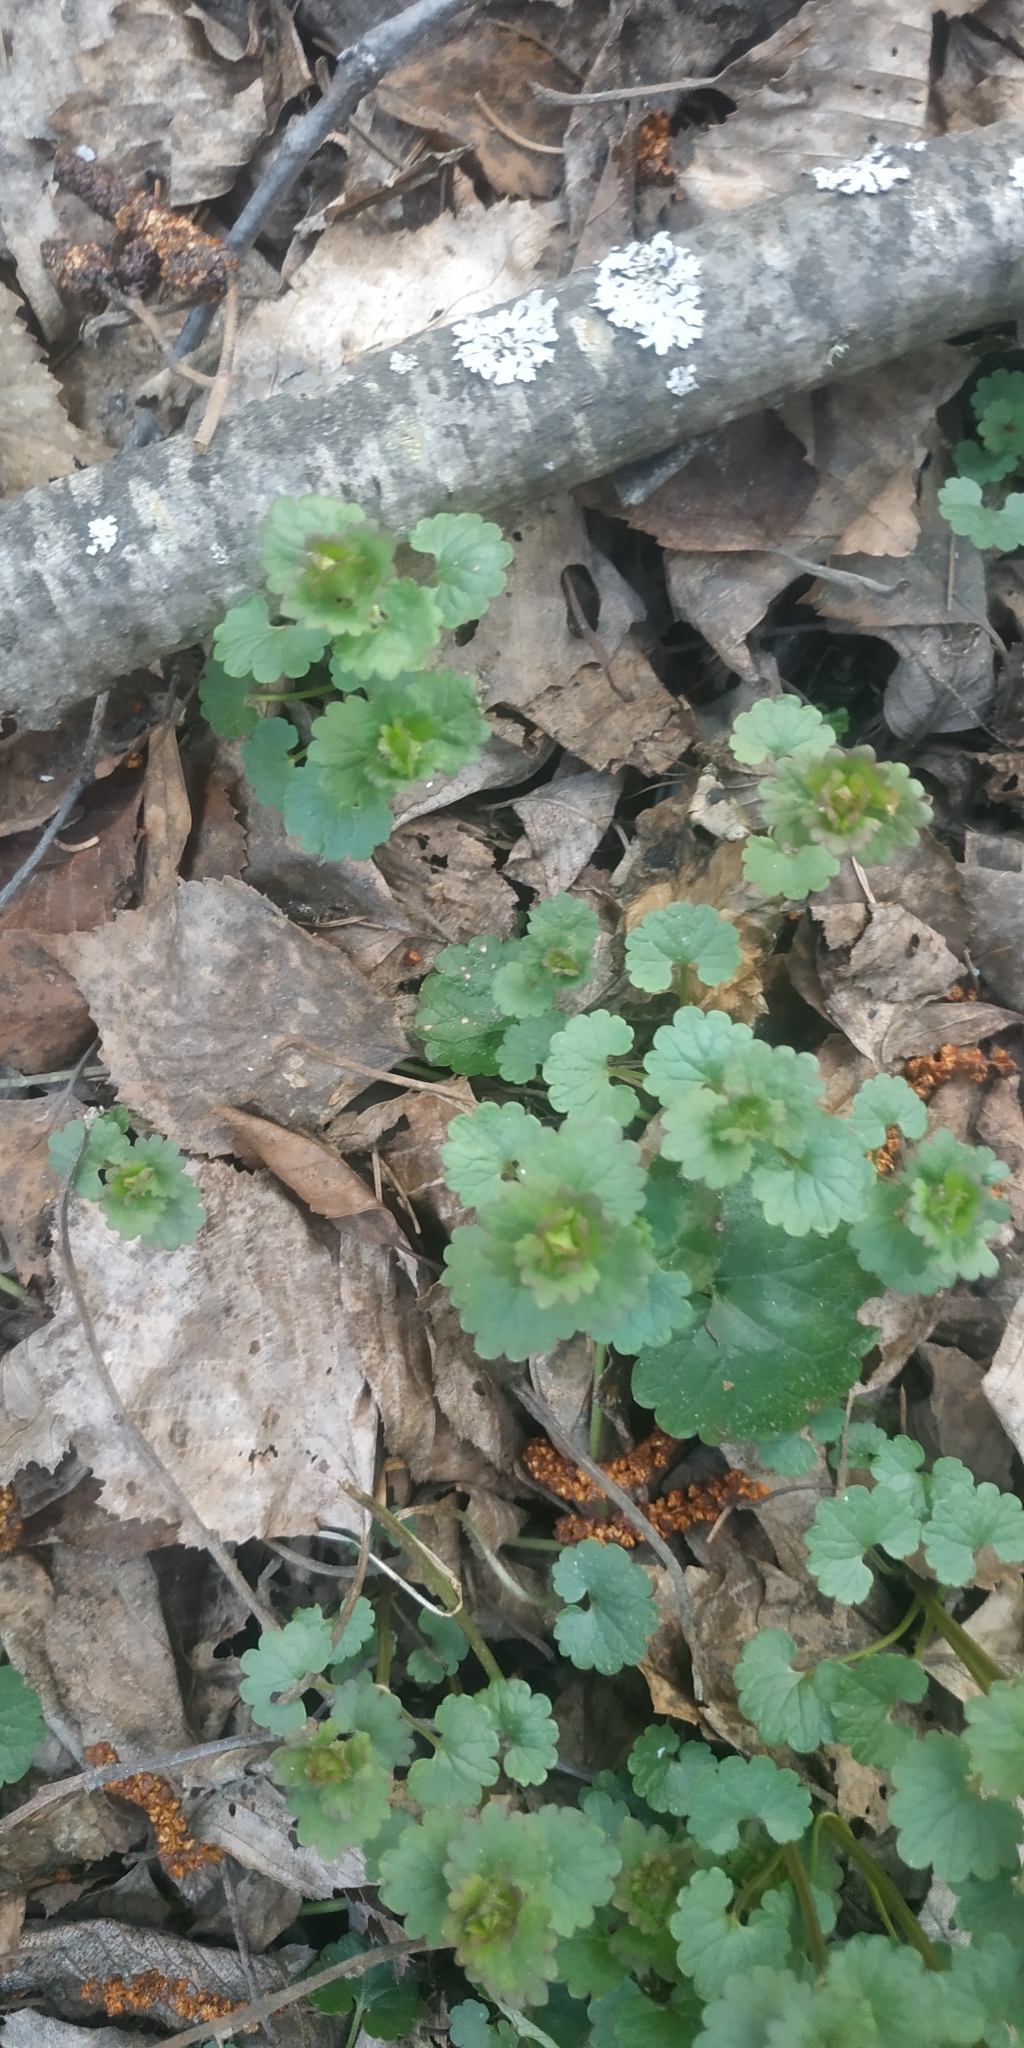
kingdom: Plantae
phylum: Tracheophyta
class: Magnoliopsida
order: Lamiales
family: Lamiaceae
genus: Glechoma
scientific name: Glechoma hederacea
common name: Ground ivy
